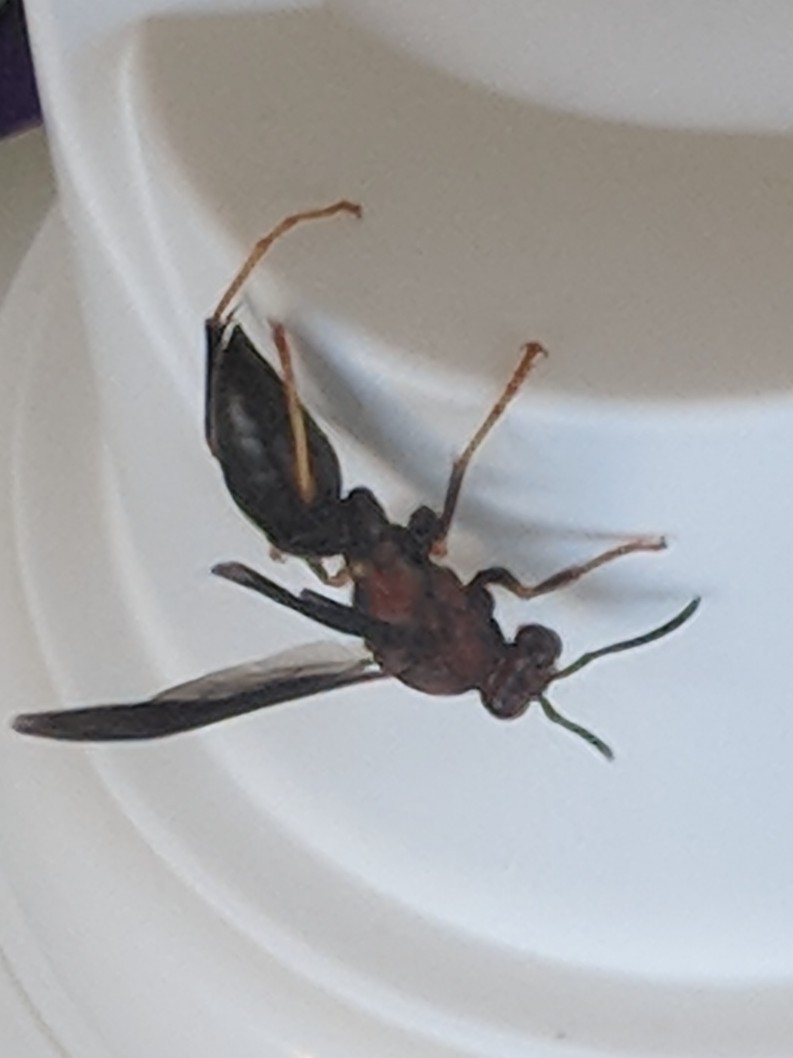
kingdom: Animalia
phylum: Arthropoda
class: Insecta
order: Hymenoptera
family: Eumenidae
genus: Polistes
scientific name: Polistes metricus
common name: Metric paper wasp
